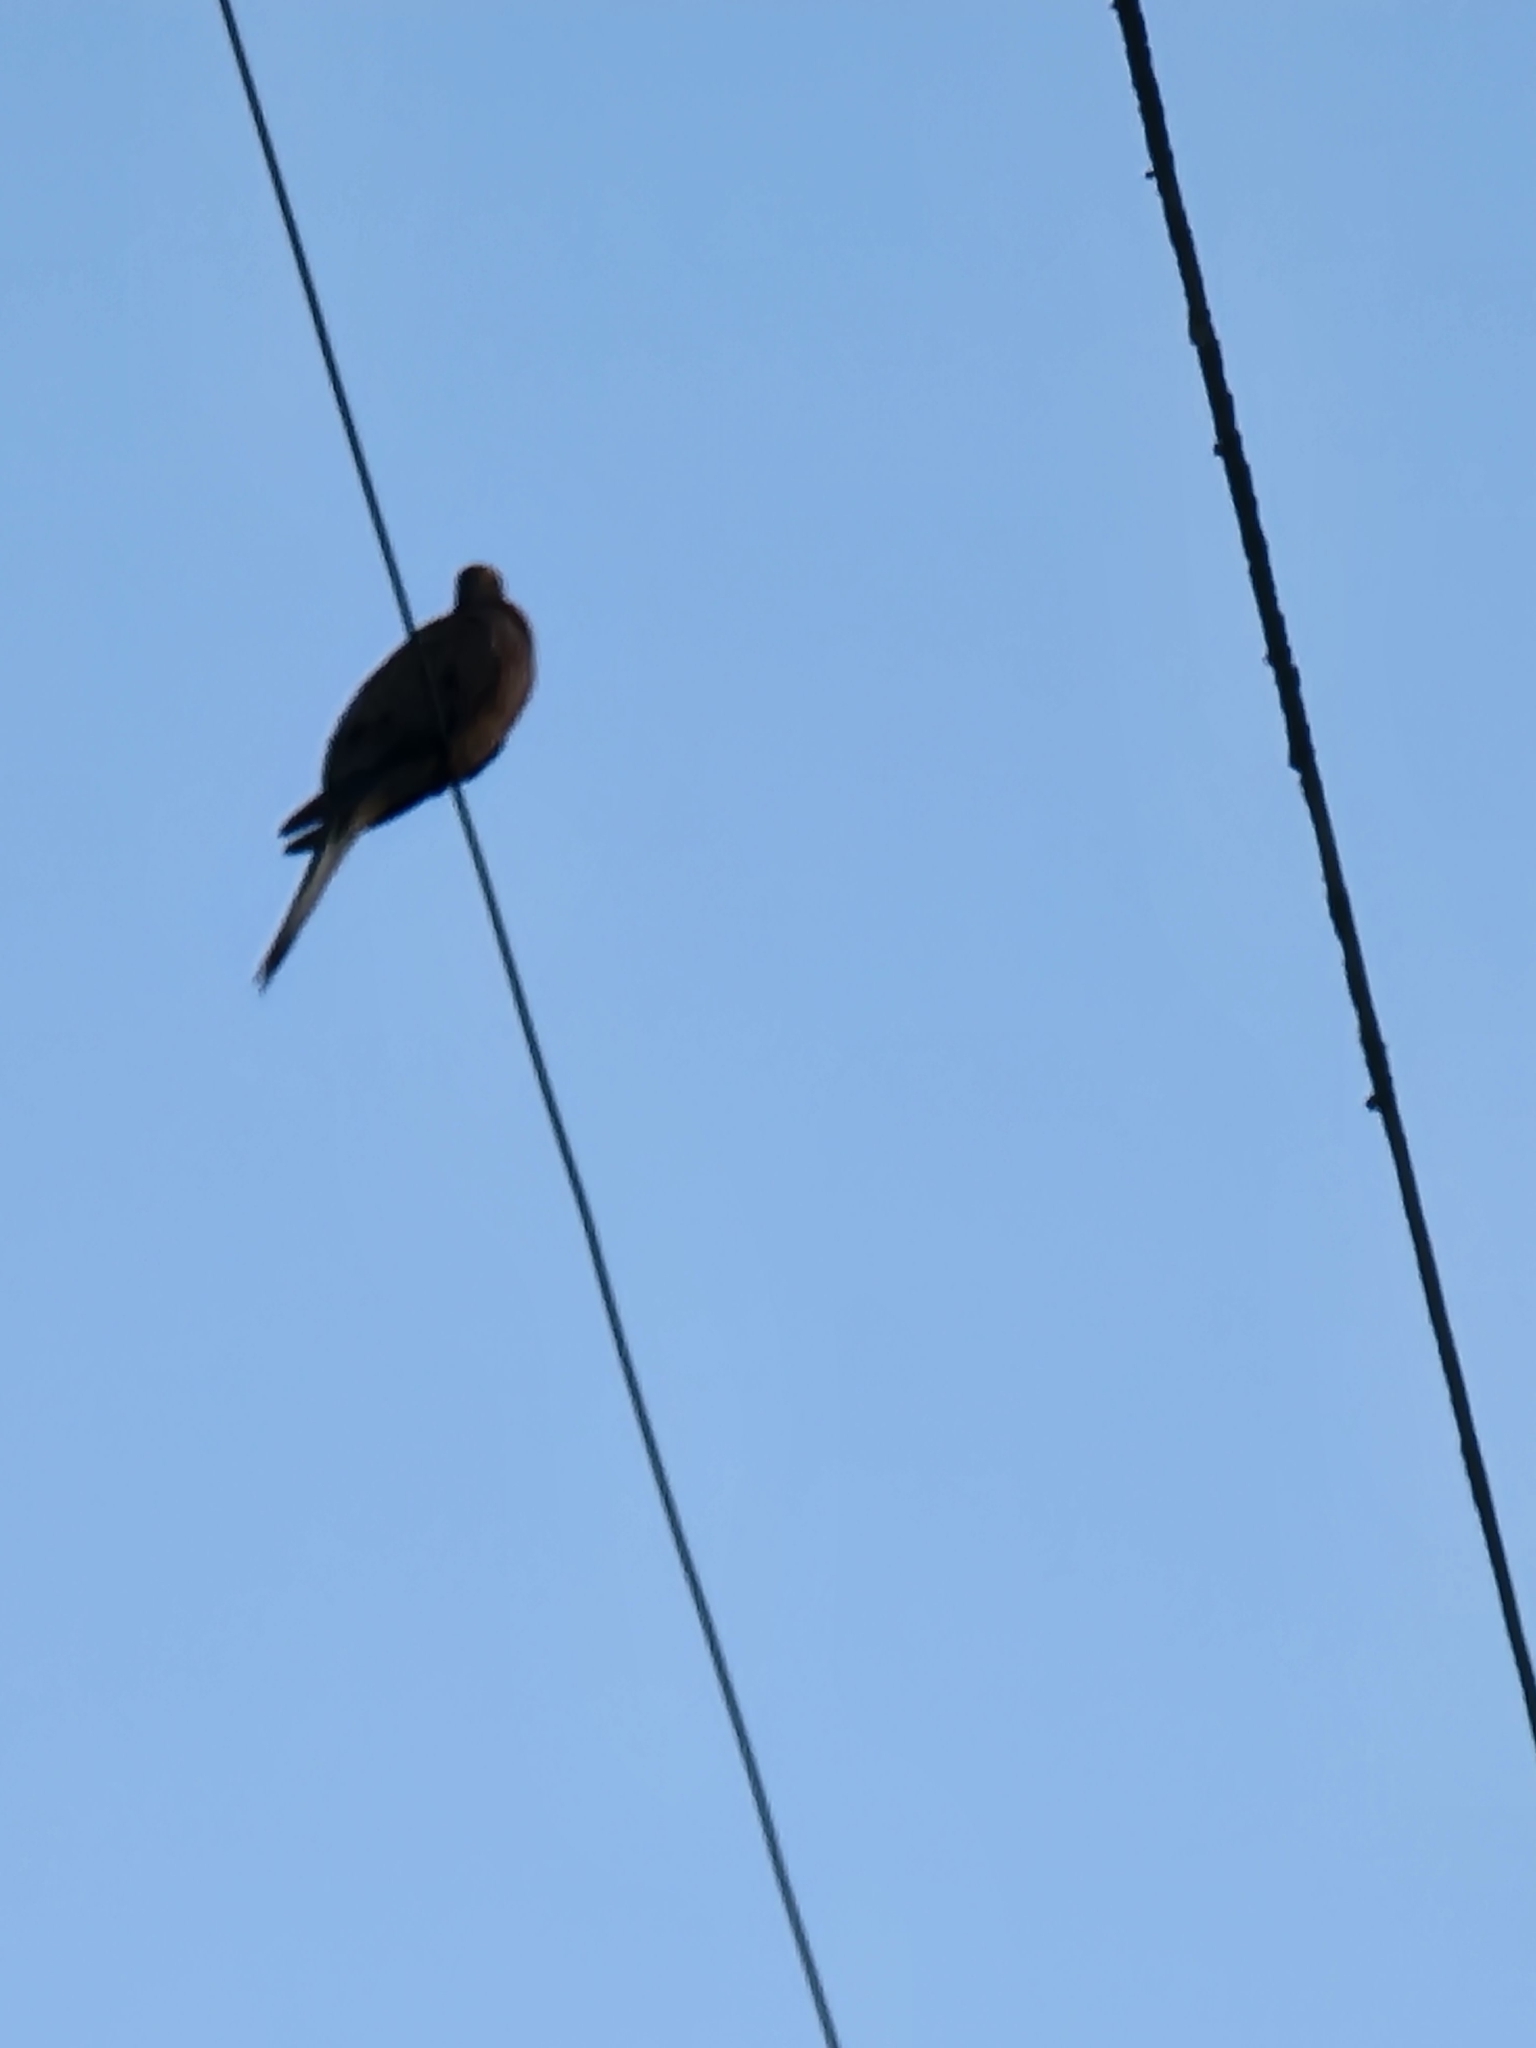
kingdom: Animalia
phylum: Chordata
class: Aves
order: Columbiformes
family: Columbidae
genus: Zenaida
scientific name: Zenaida macroura
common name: Mourning dove
